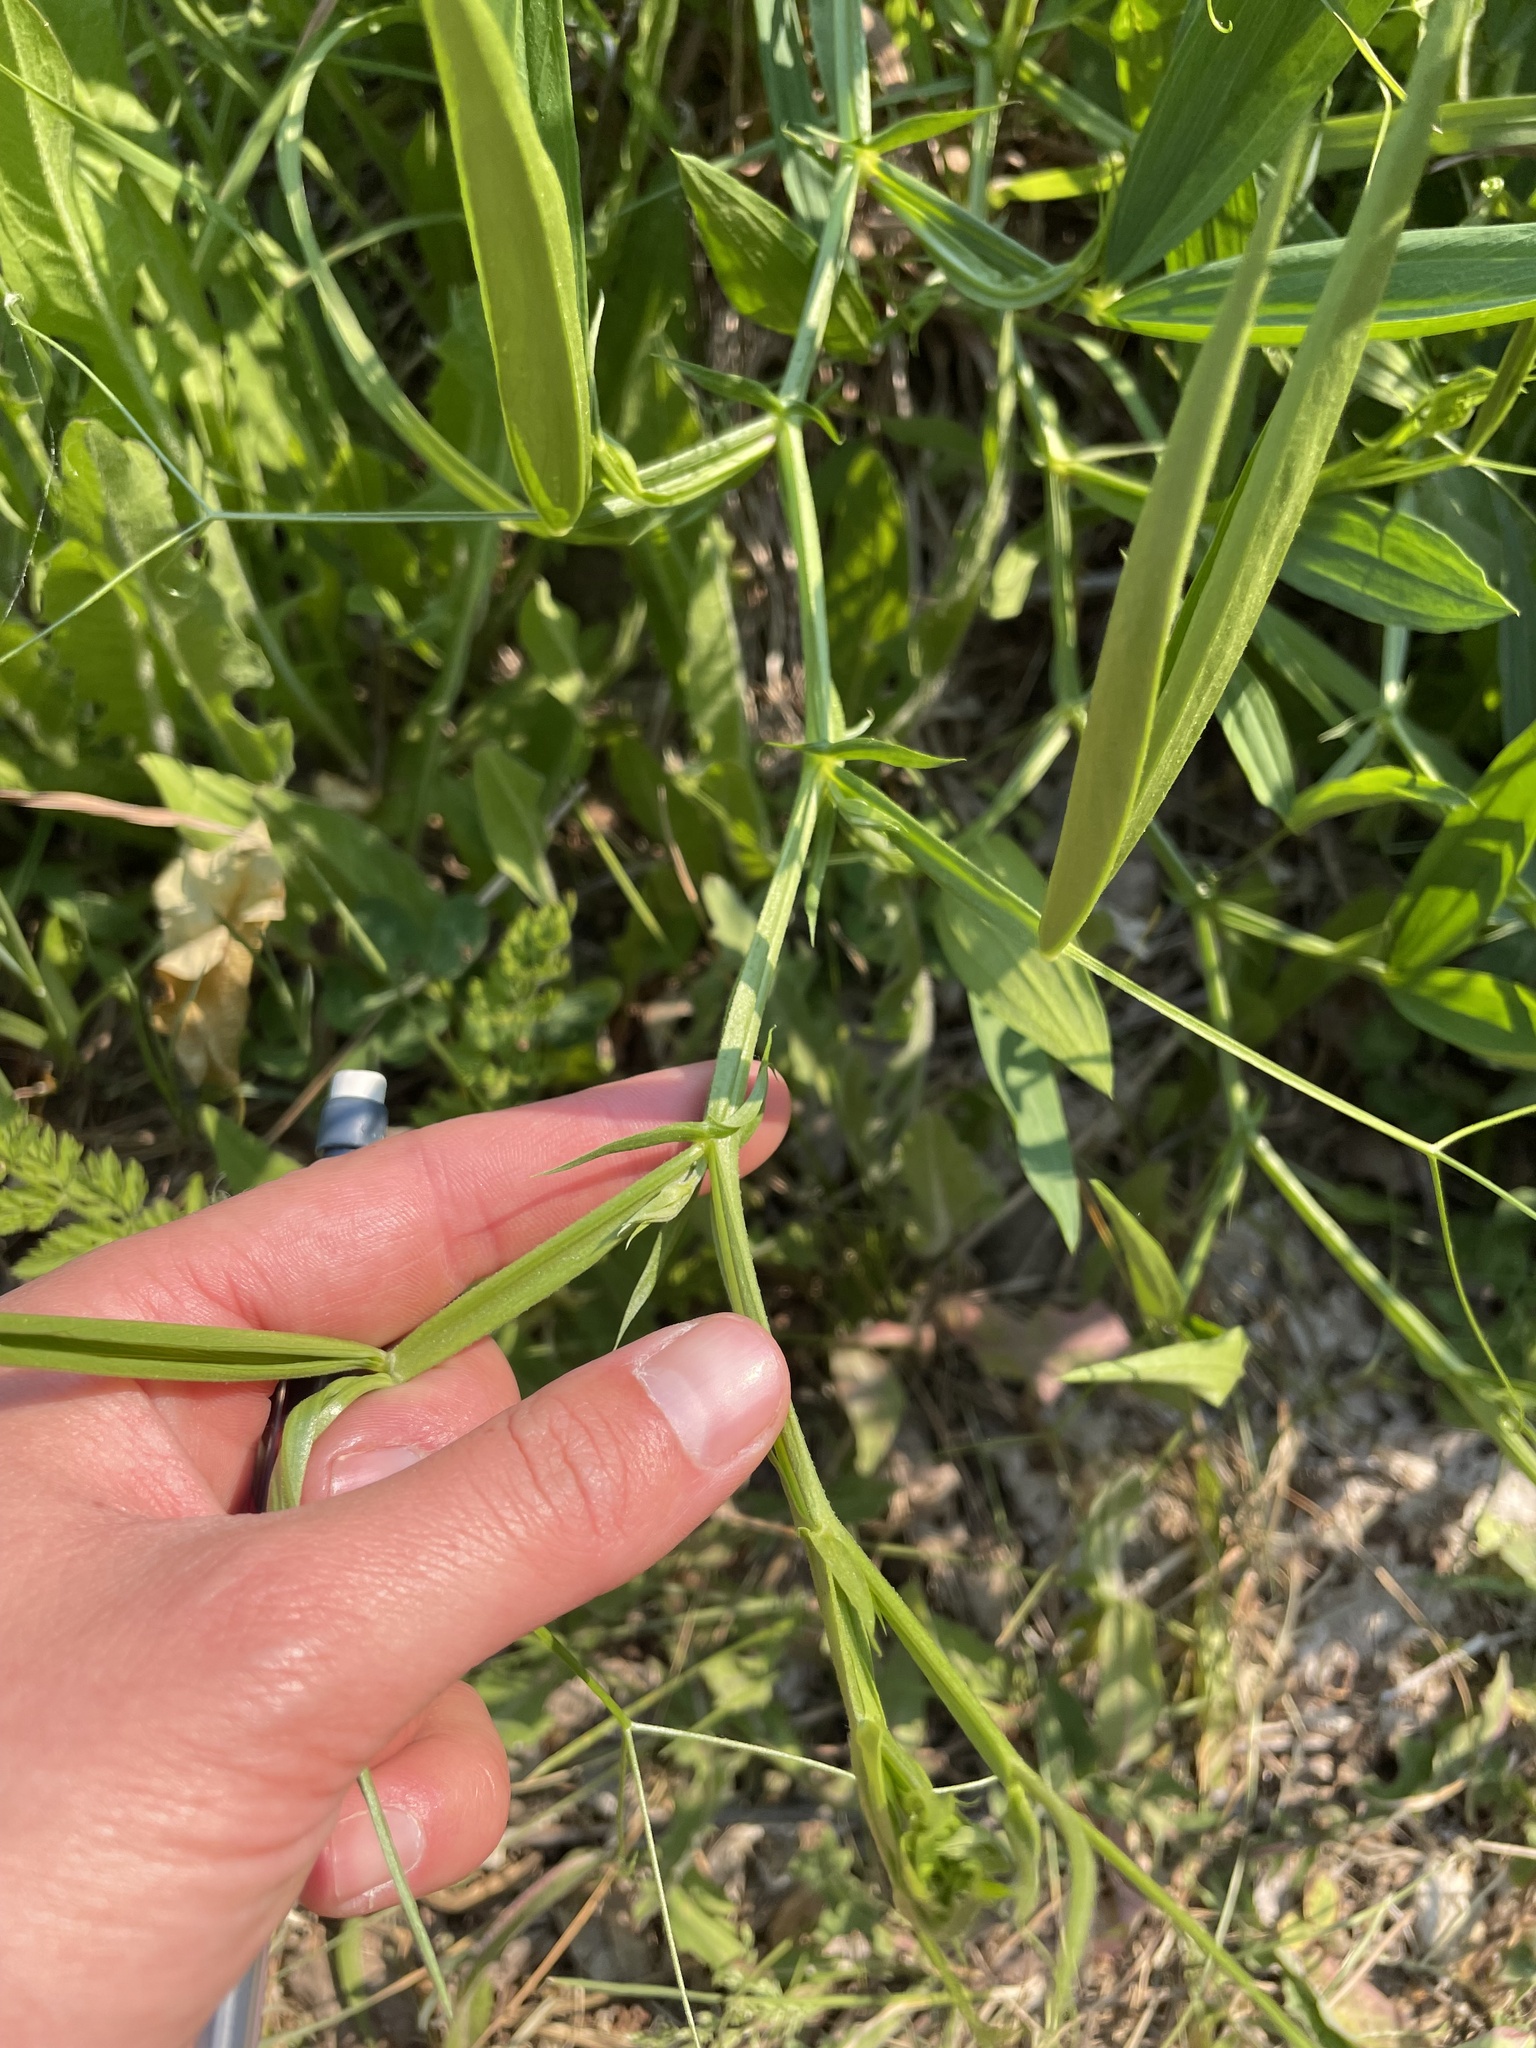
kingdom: Plantae
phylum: Tracheophyta
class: Magnoliopsida
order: Fabales
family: Fabaceae
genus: Lathyrus
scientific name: Lathyrus latifolius
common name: Perennial pea
